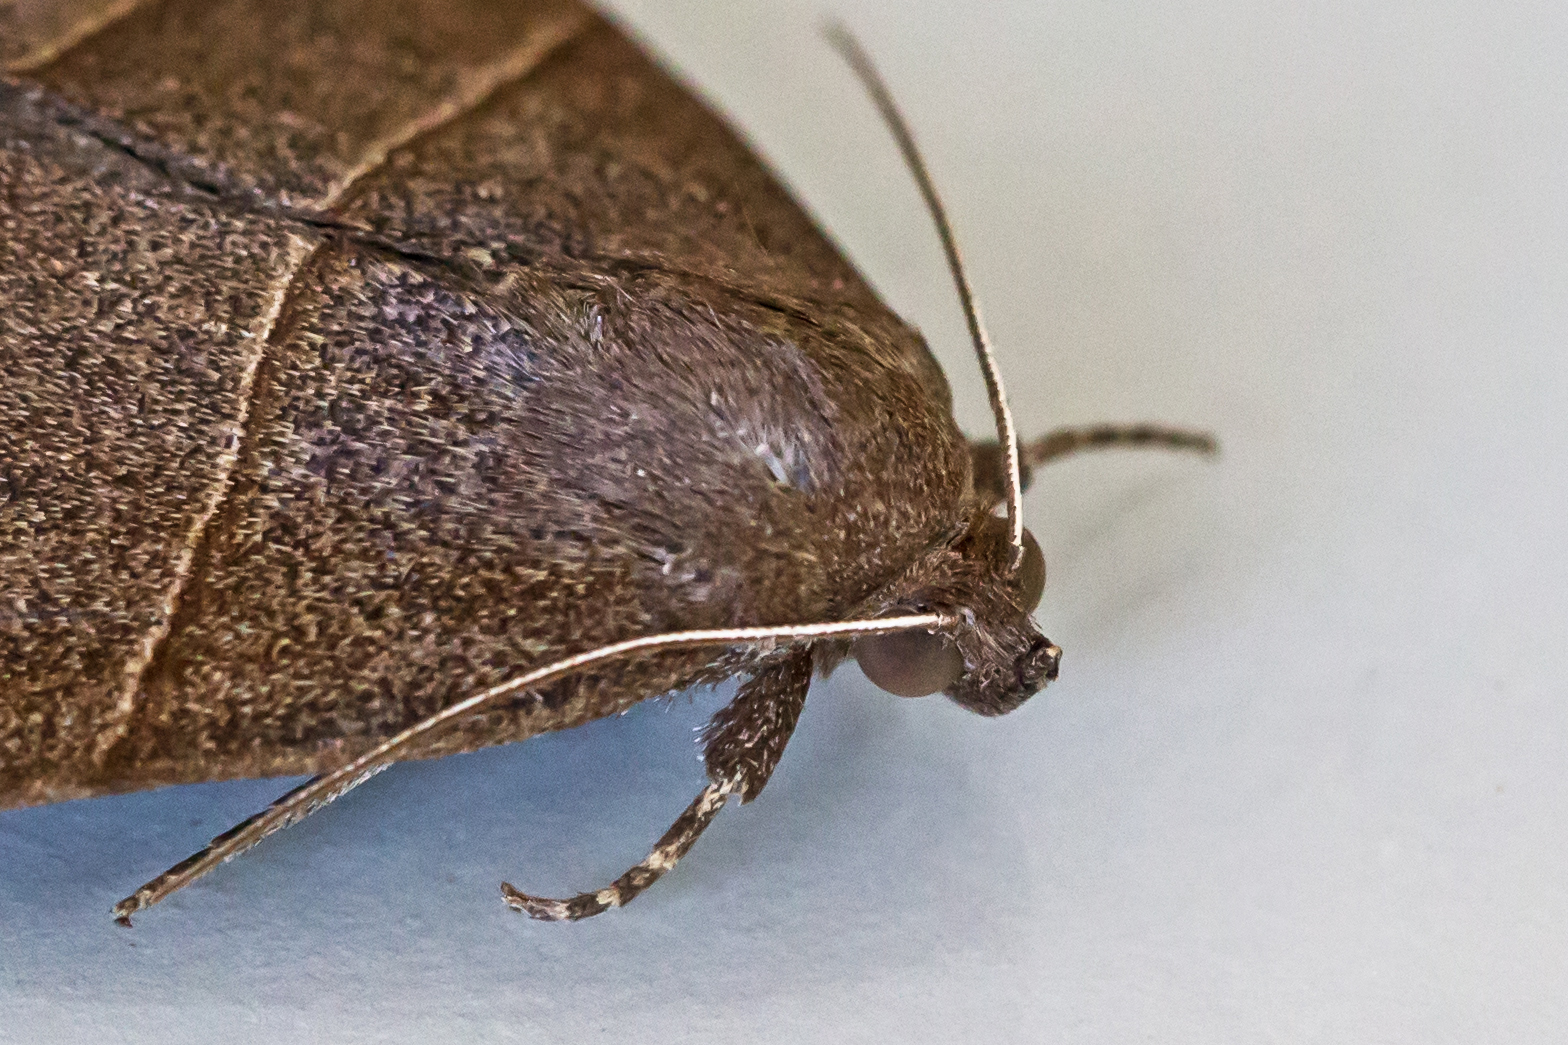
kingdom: Animalia
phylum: Arthropoda
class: Insecta
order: Lepidoptera
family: Erebidae
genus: Parallelia
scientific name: Parallelia bistriaris
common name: Maple looper moth
